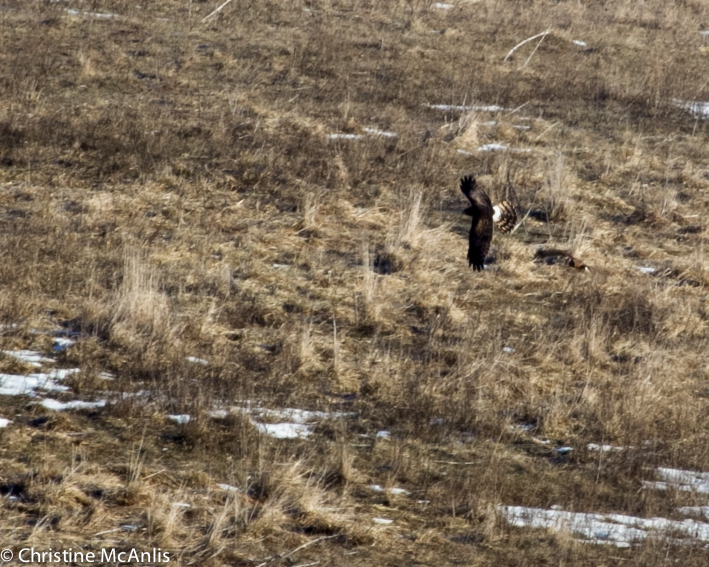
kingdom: Animalia
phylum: Chordata
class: Aves
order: Accipitriformes
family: Accipitridae
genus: Circus
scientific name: Circus cyaneus
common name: Hen harrier
